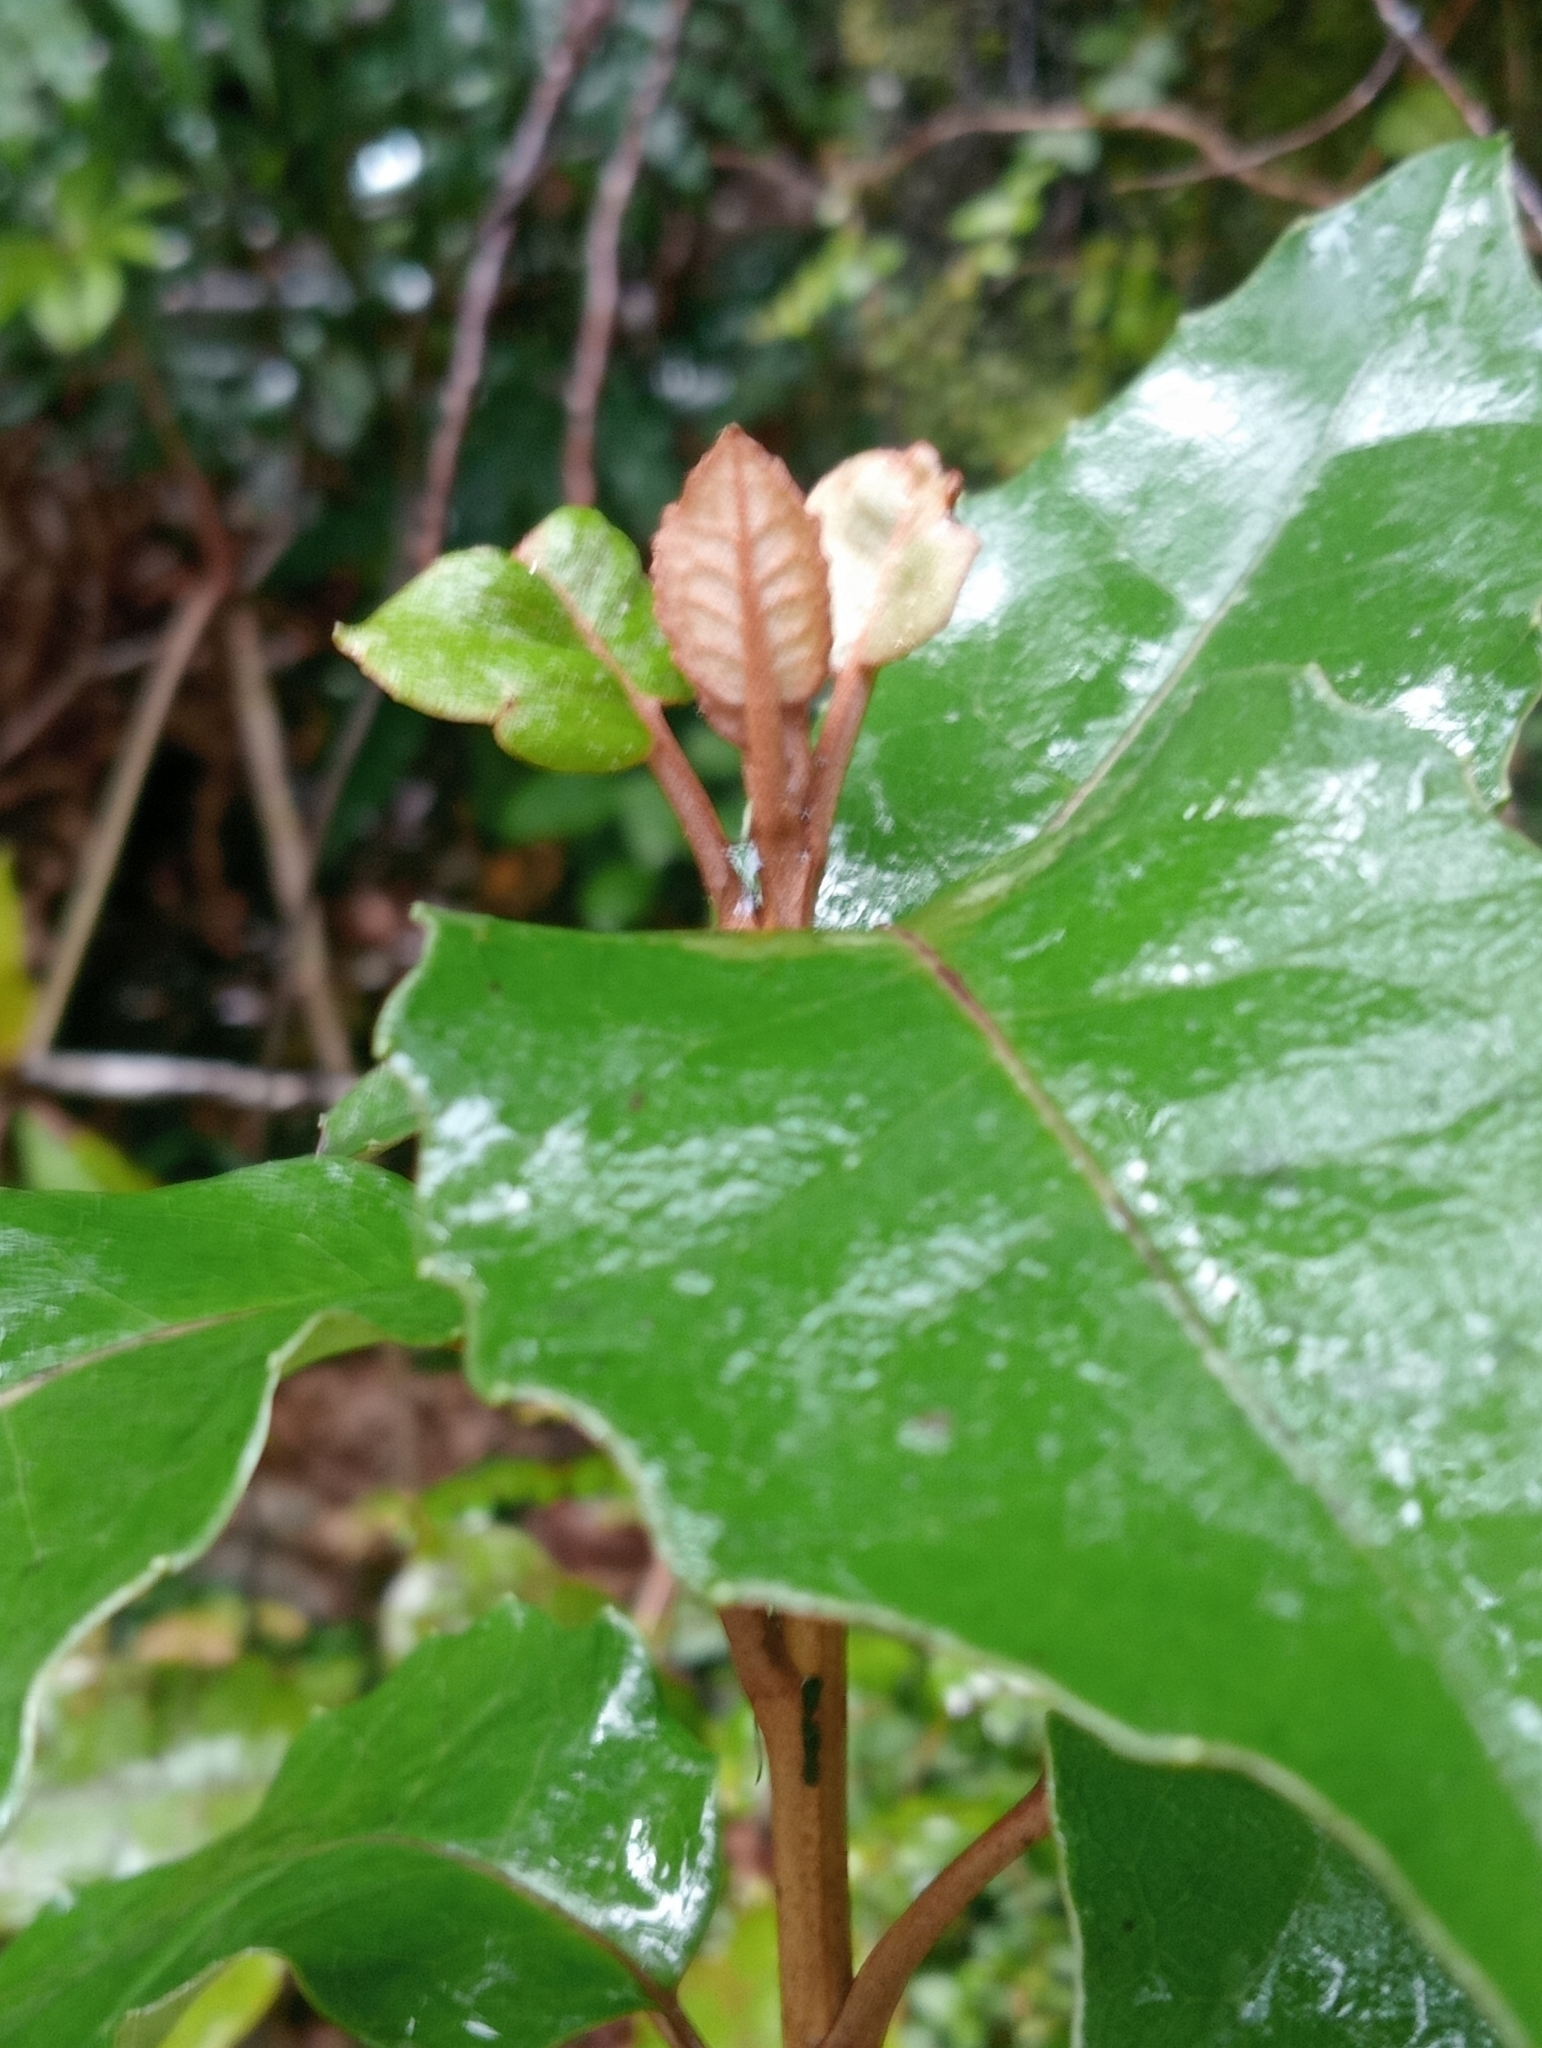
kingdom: Plantae
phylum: Tracheophyta
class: Magnoliopsida
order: Asterales
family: Asteraceae
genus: Olearia
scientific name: Olearia arborescens
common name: Glossy tree daisy
